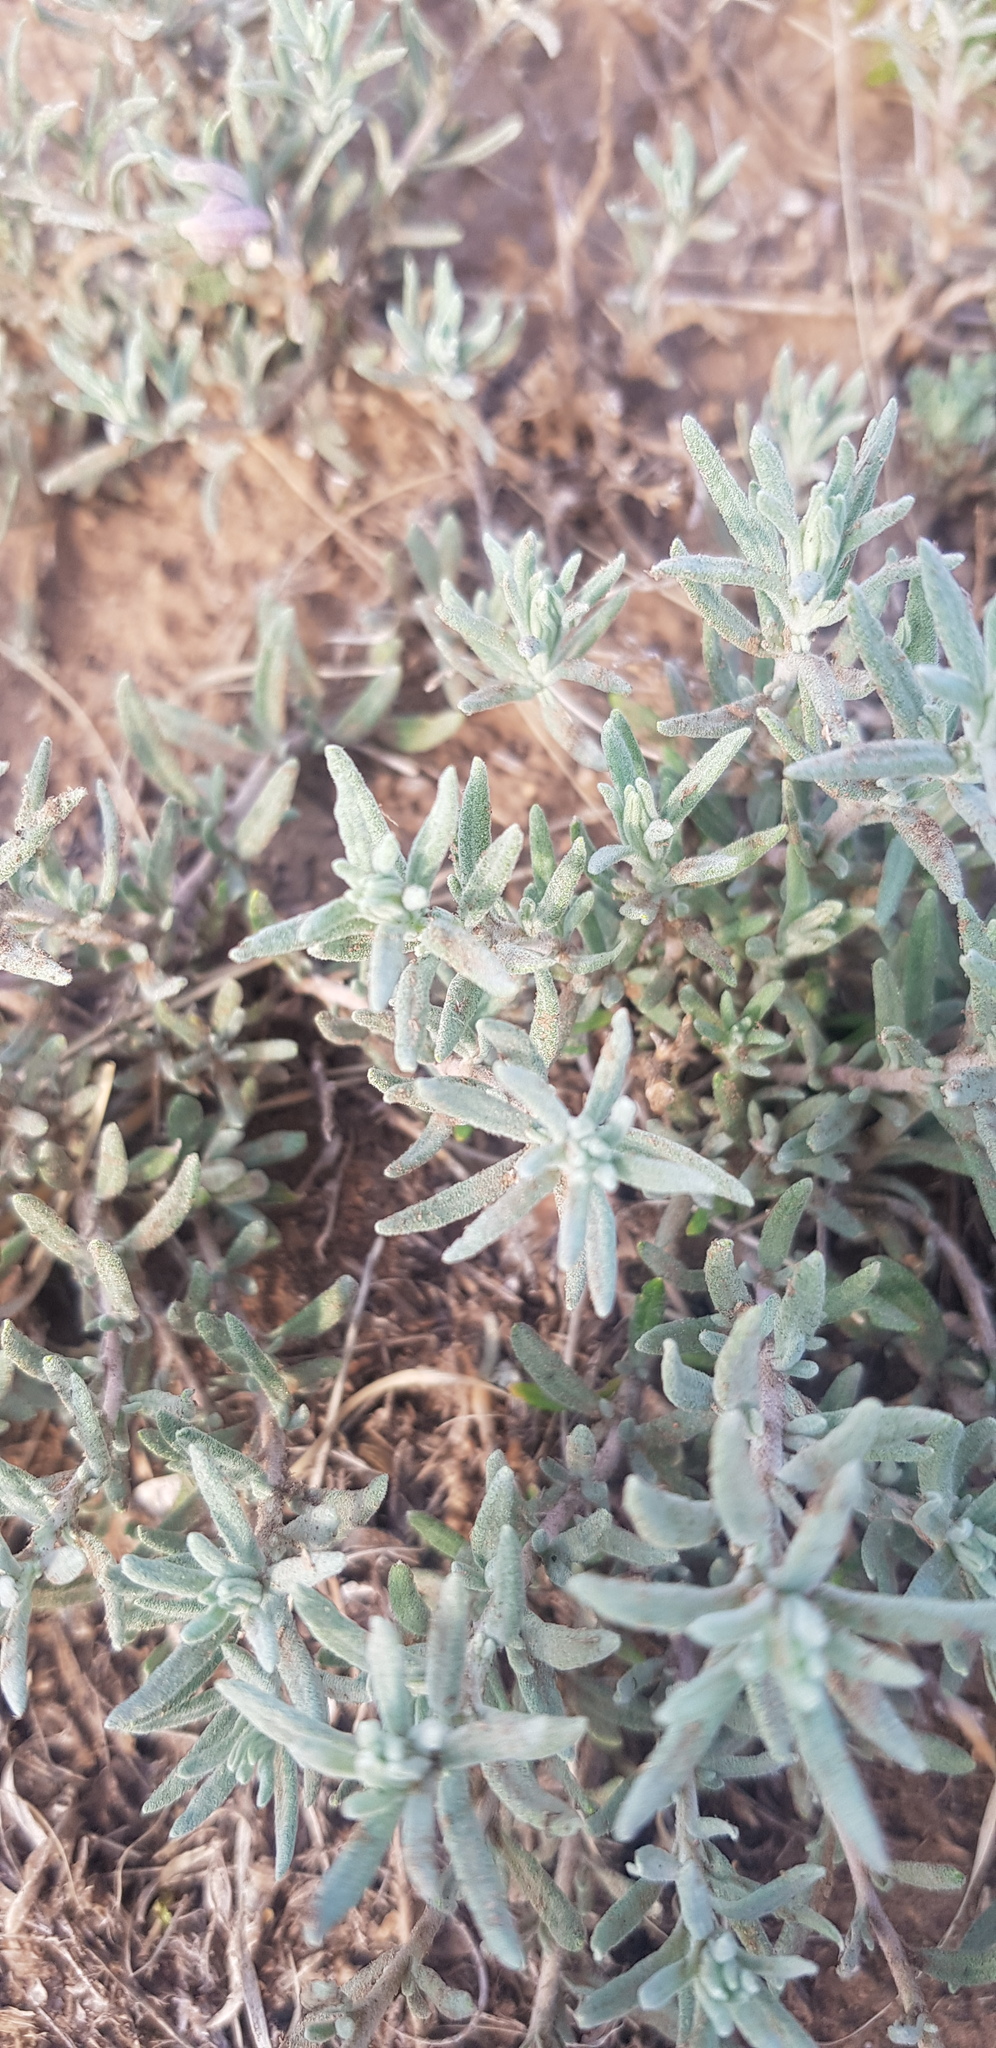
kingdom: Plantae
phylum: Tracheophyta
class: Magnoliopsida
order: Caryophyllales
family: Amaranthaceae
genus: Bassia
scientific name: Bassia prostrata
